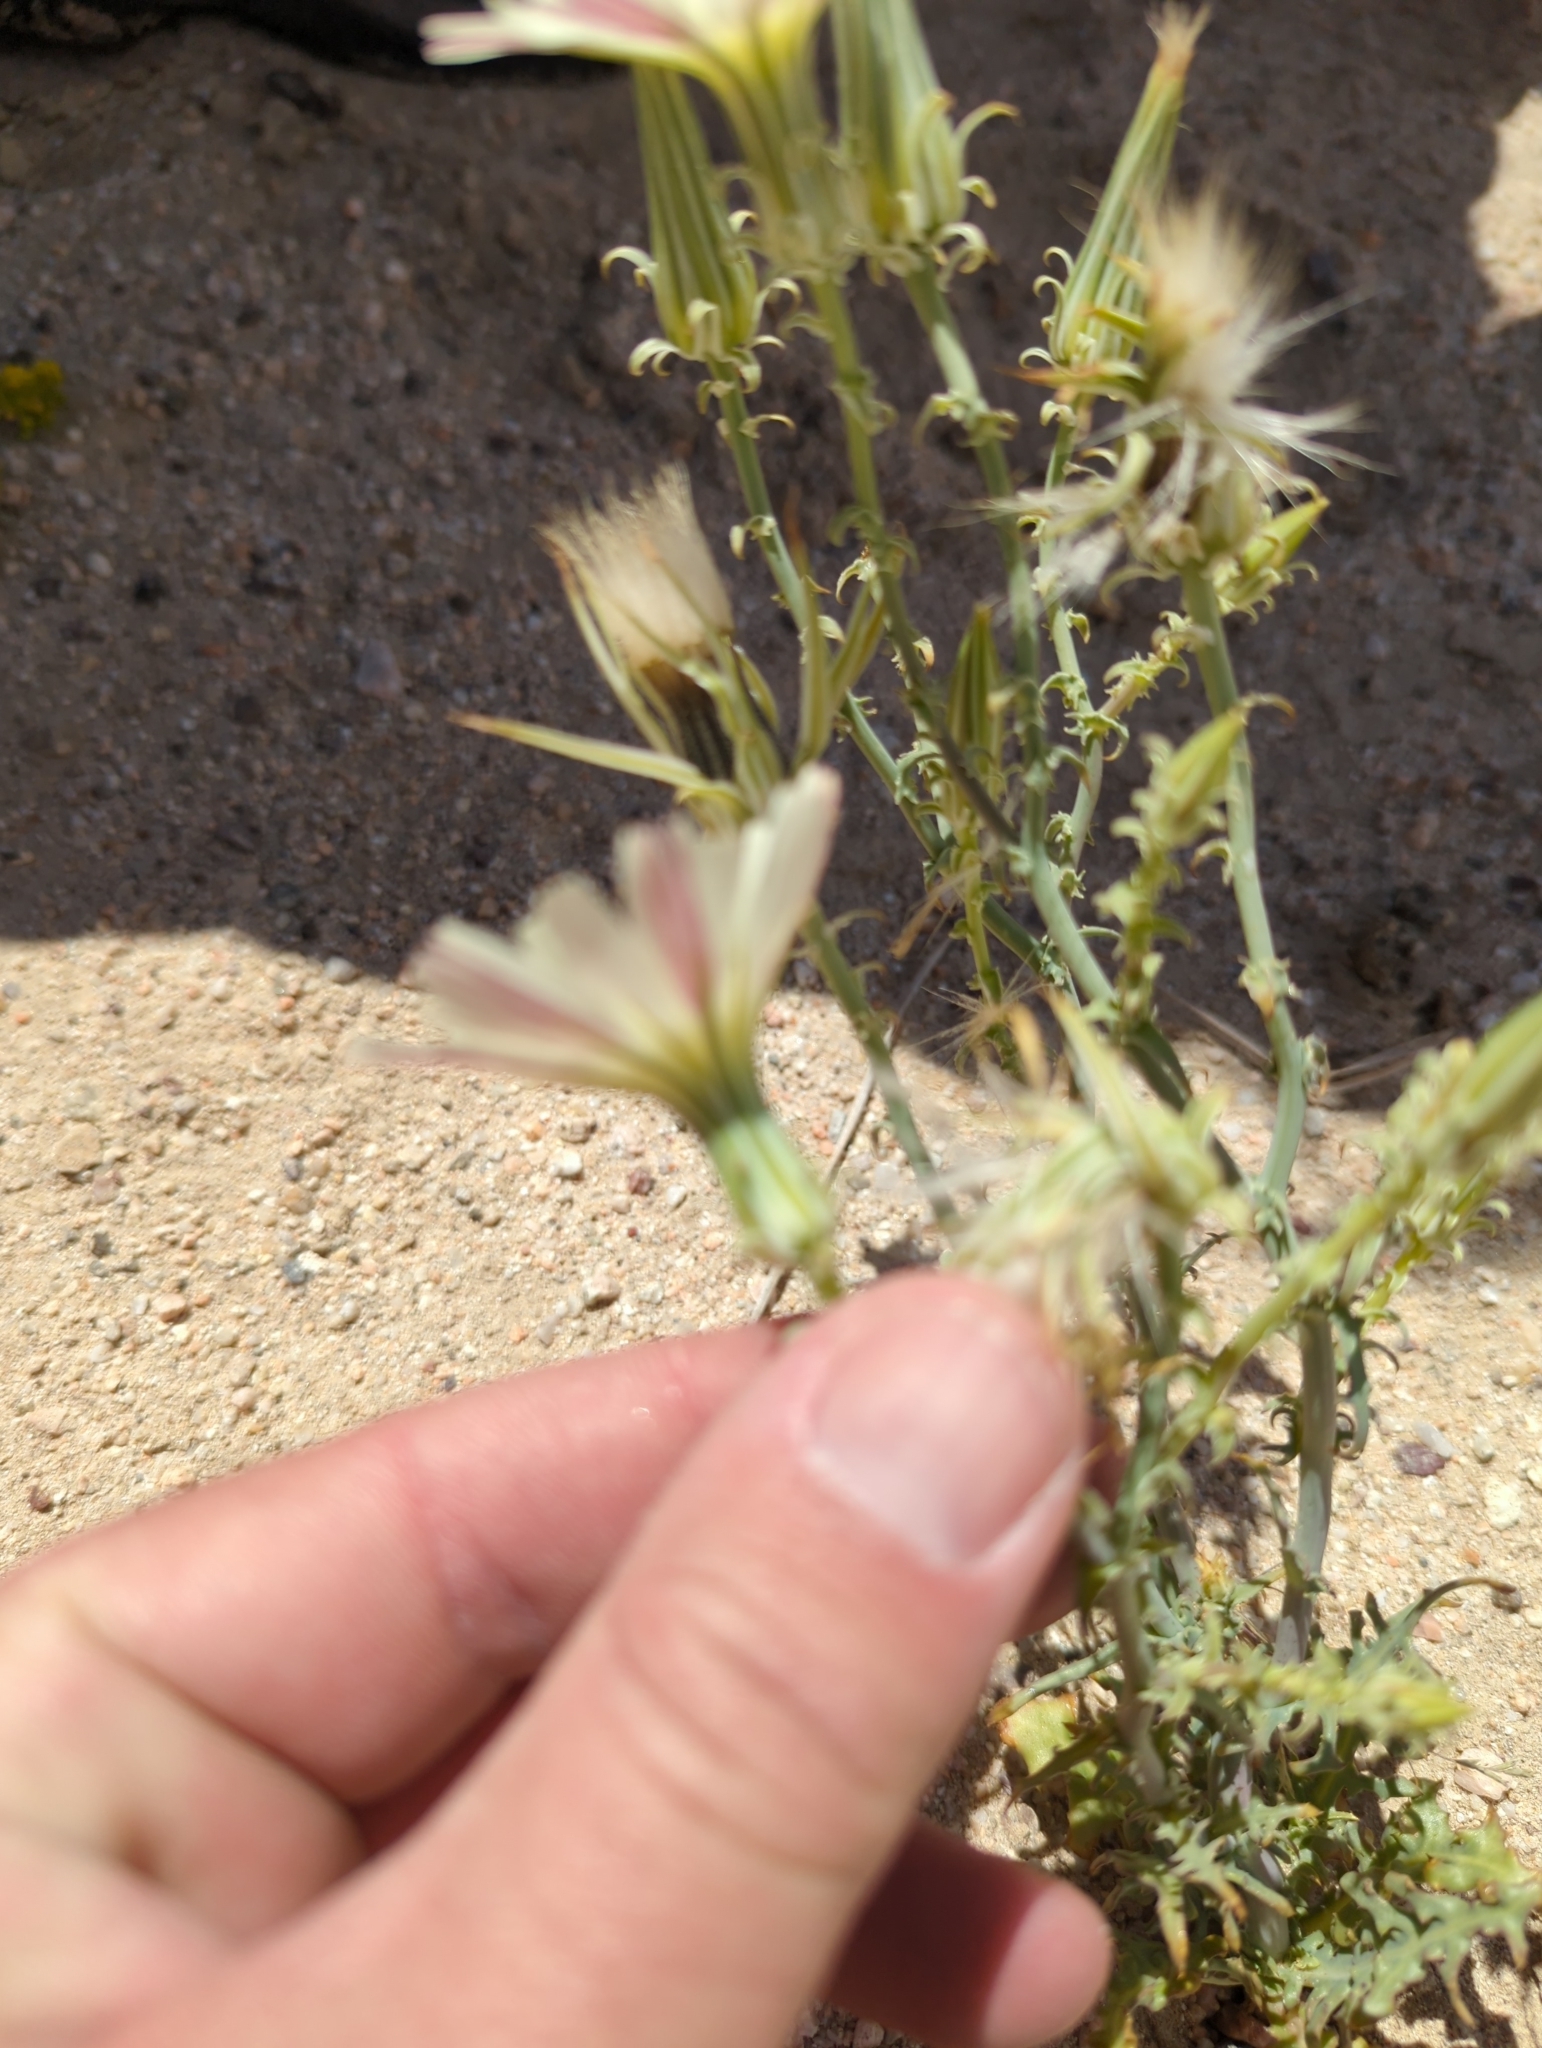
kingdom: Plantae
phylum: Tracheophyta
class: Magnoliopsida
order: Asterales
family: Asteraceae
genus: Rafinesquia
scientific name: Rafinesquia neomexicana
